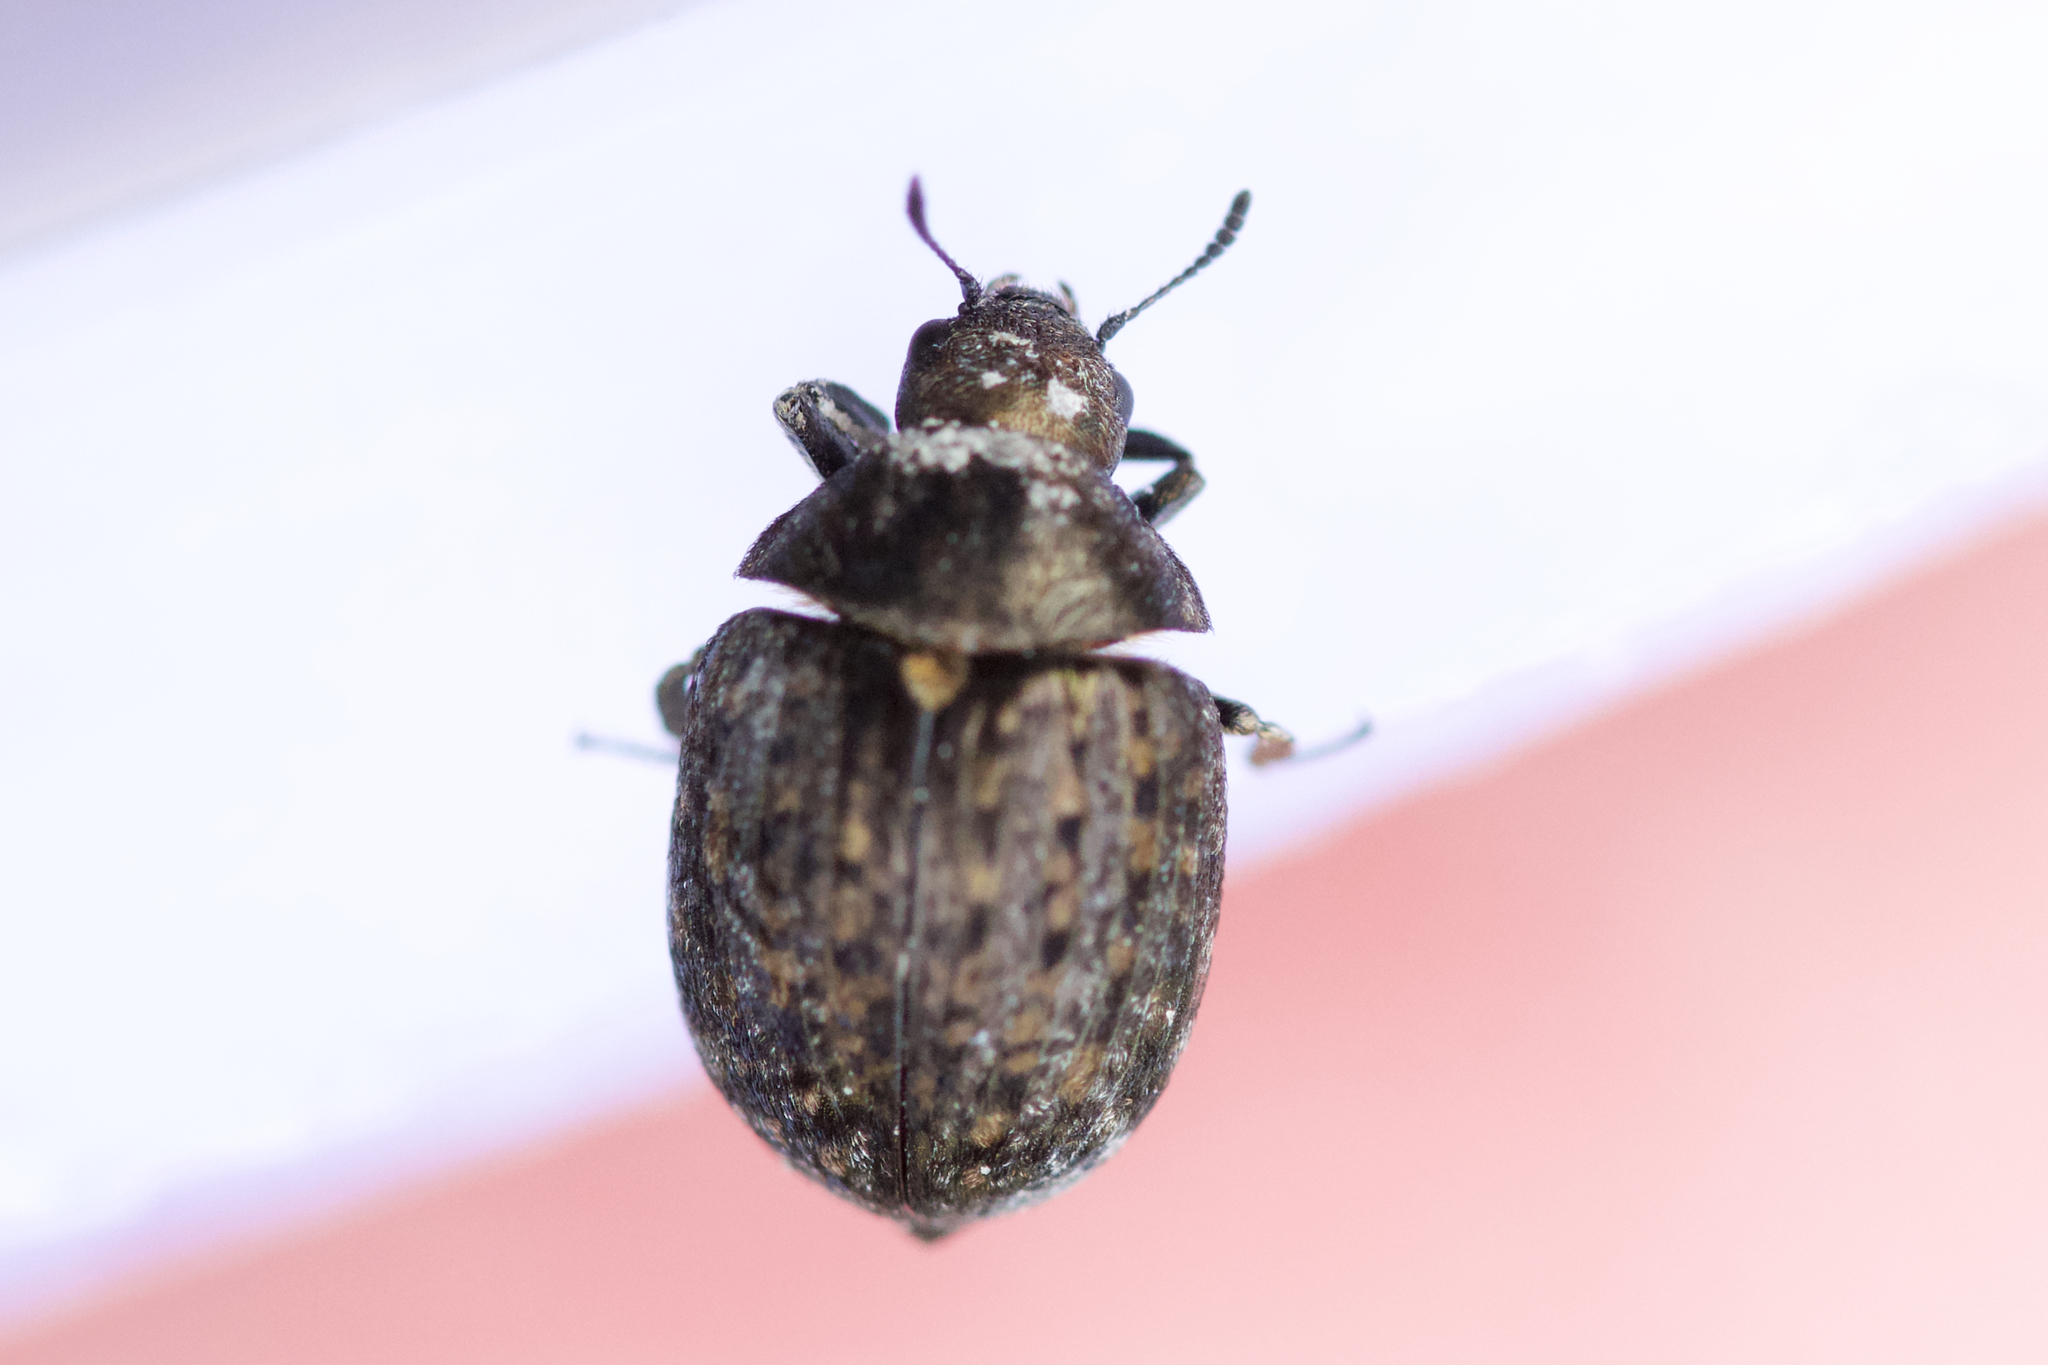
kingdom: Animalia
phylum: Arthropoda
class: Insecta
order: Coleoptera
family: Byrrhidae
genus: Cytilus
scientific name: Cytilus alternatus
